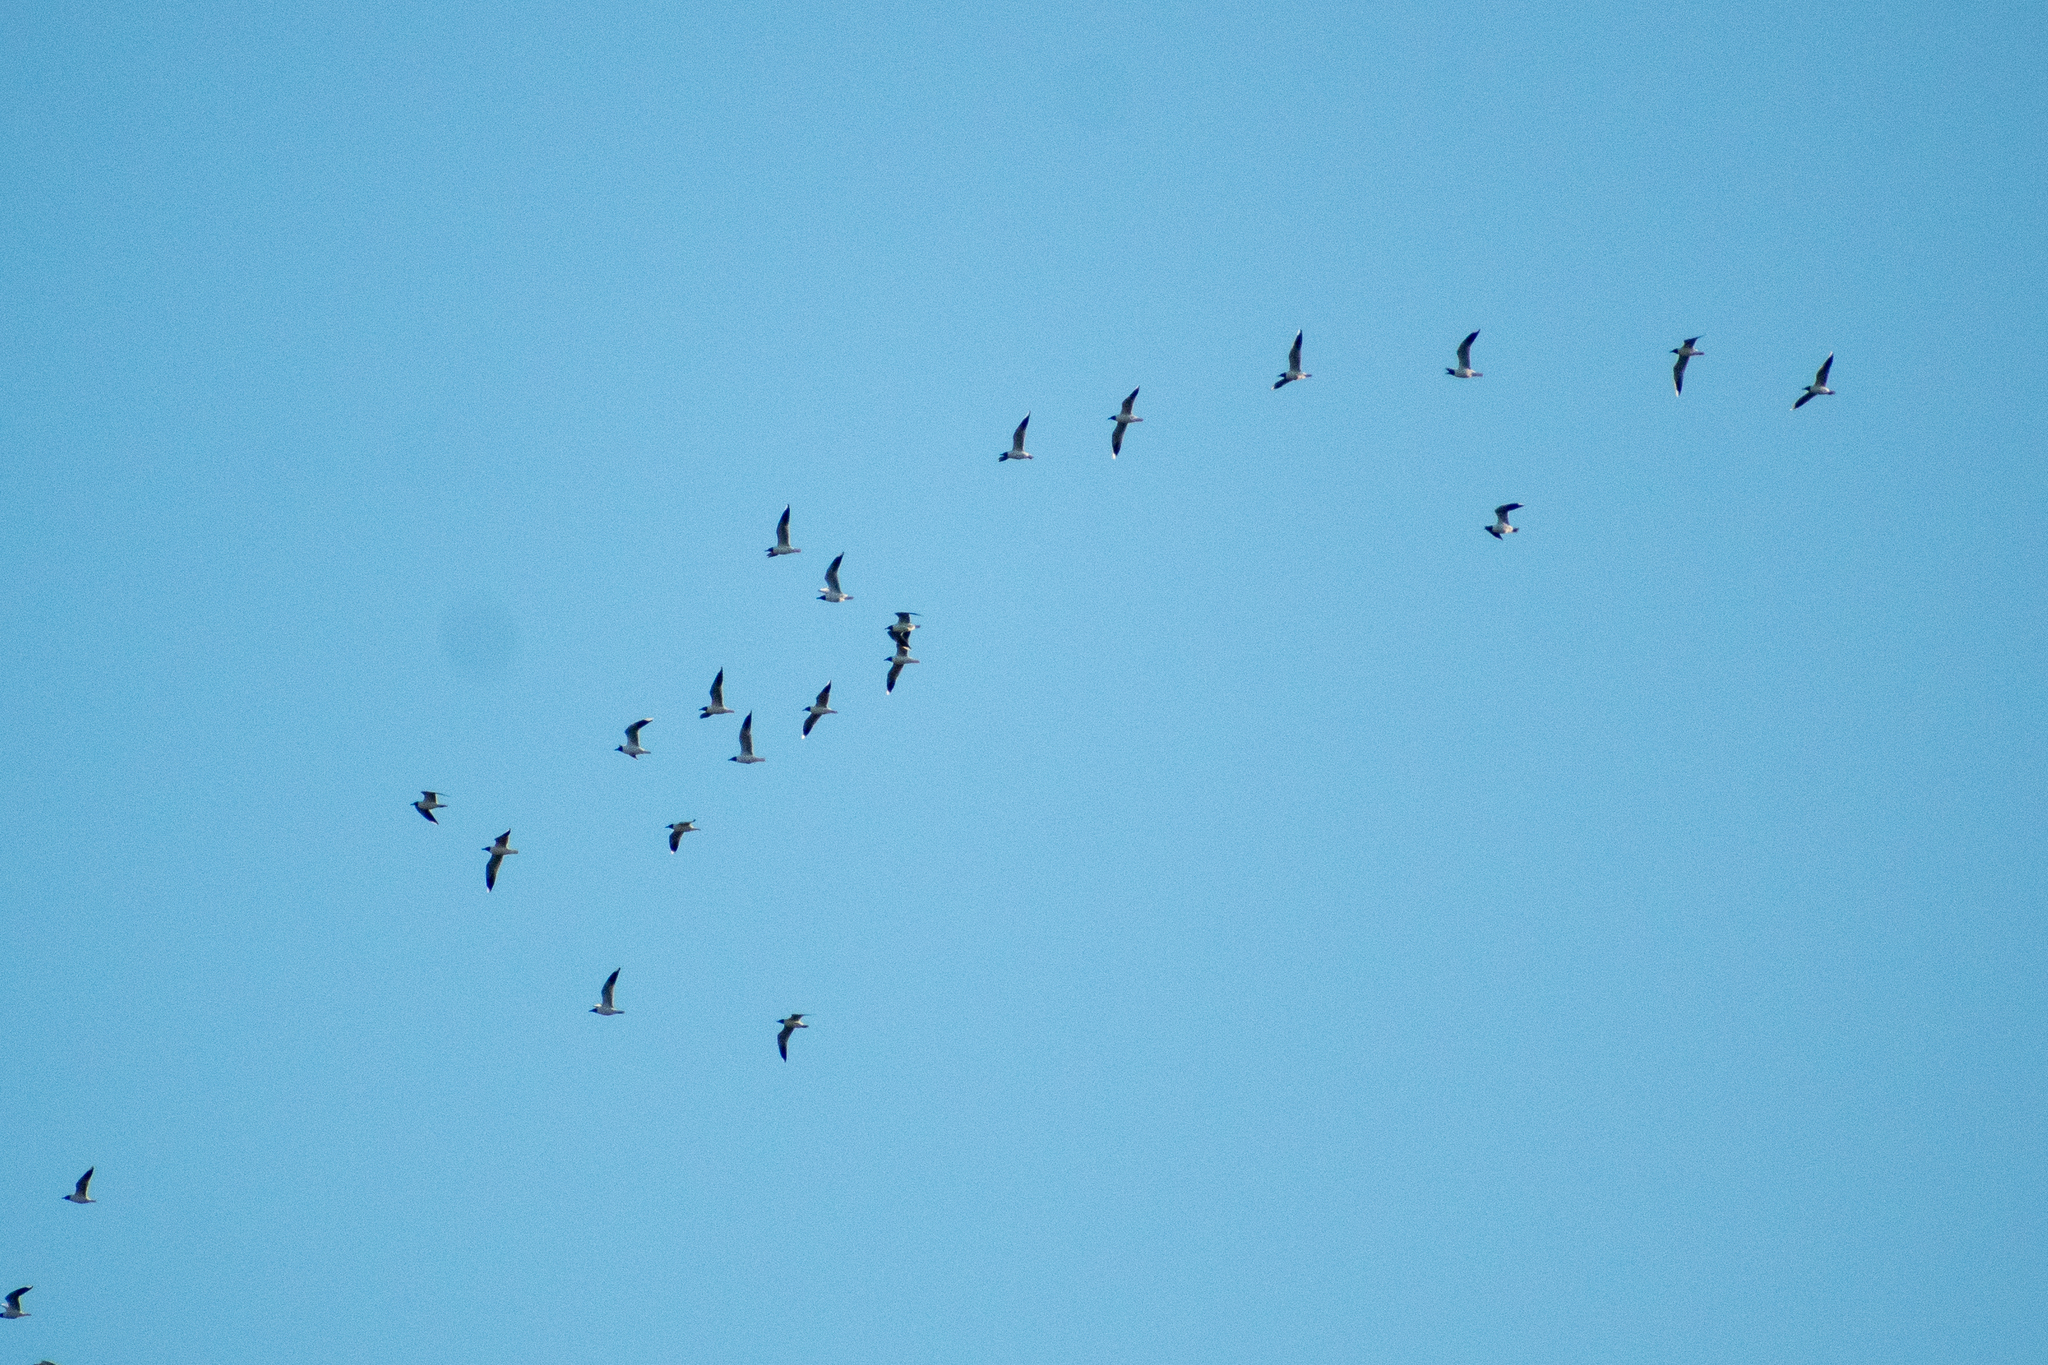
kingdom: Animalia
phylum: Chordata
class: Aves
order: Charadriiformes
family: Laridae
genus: Chroicocephalus
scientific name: Chroicocephalus maculipennis
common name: Brown-hooded gull
